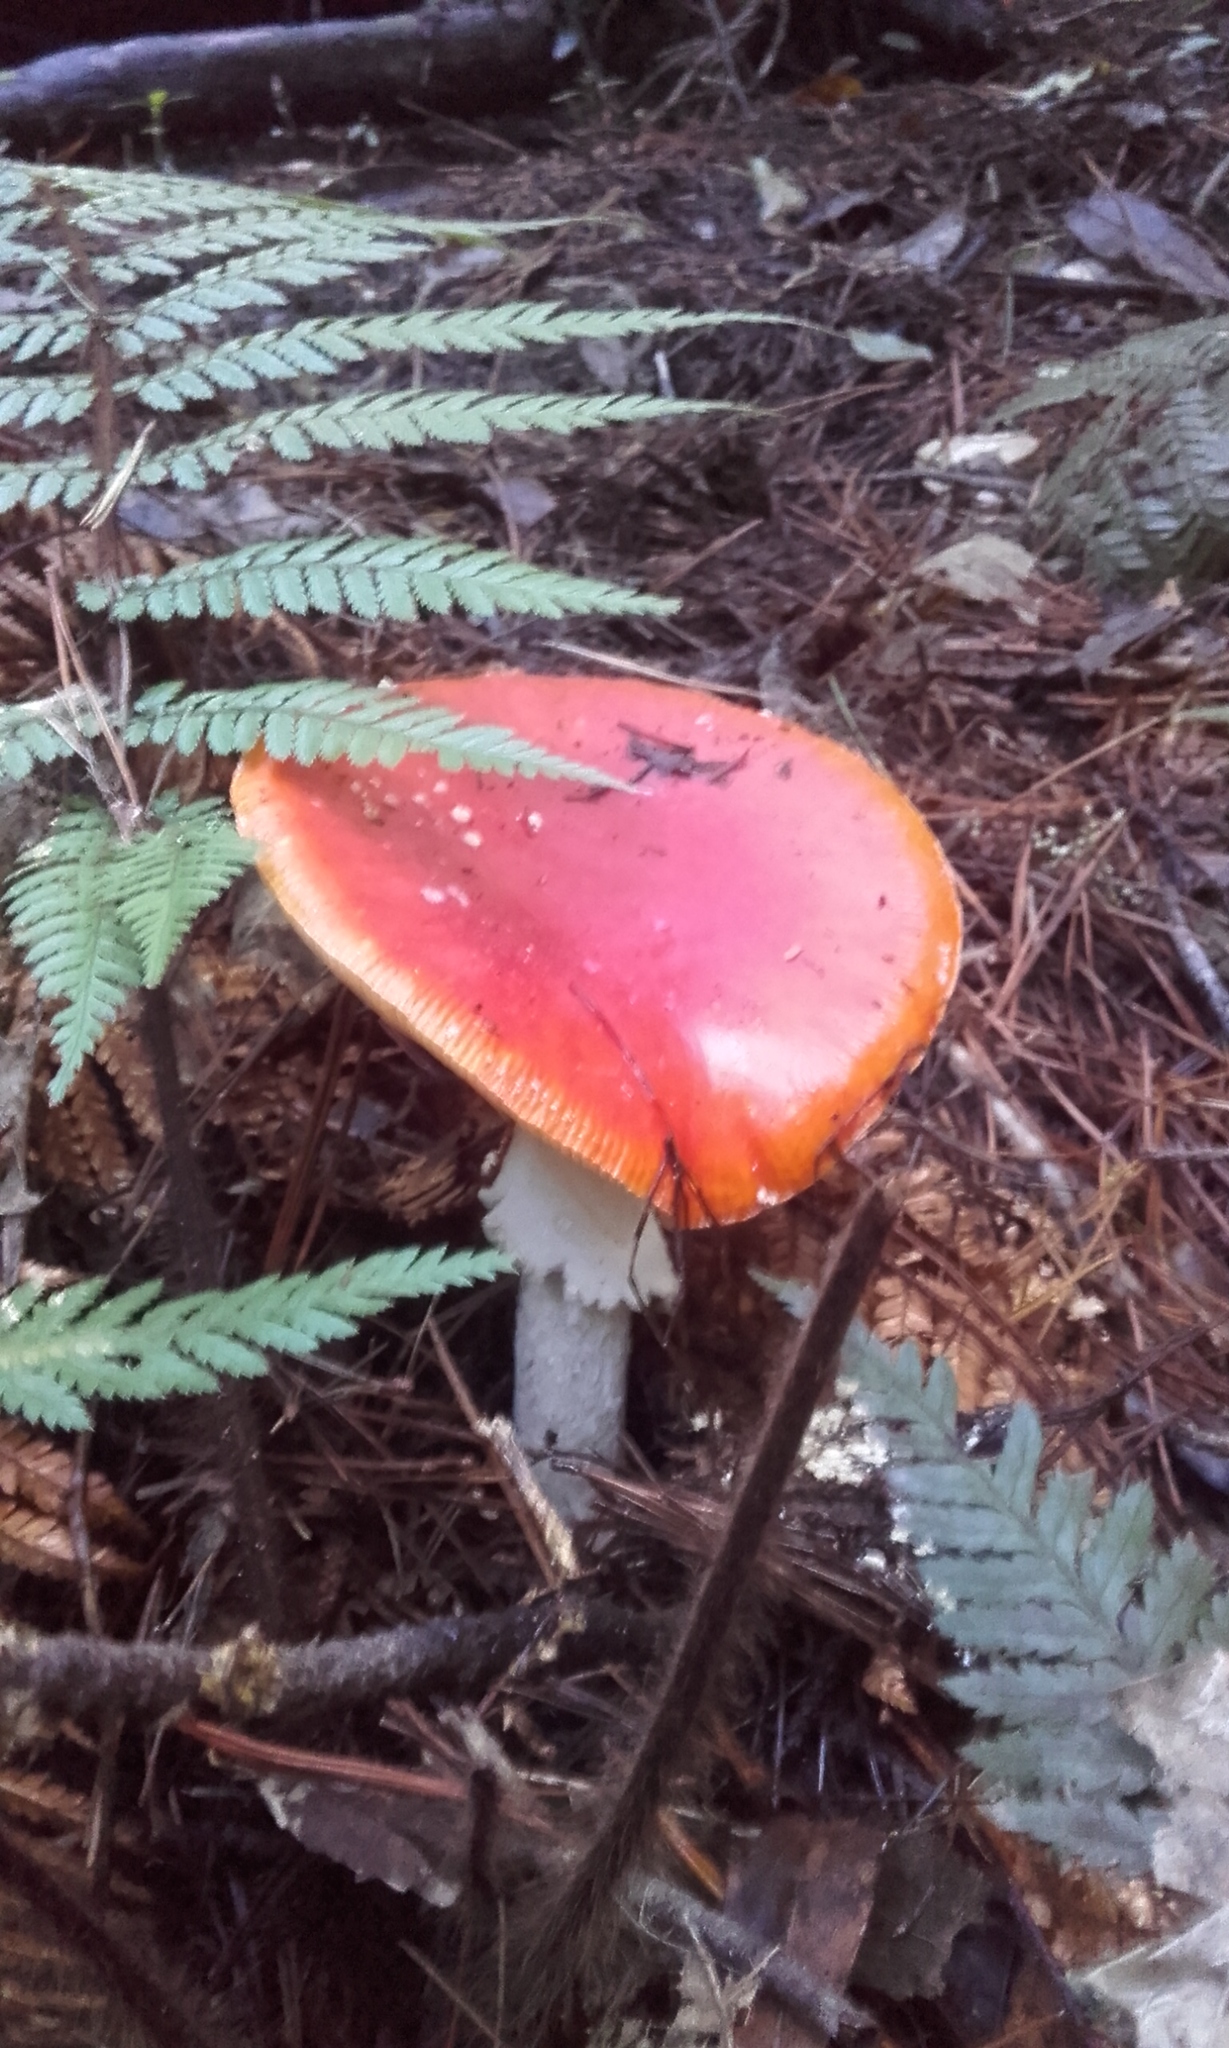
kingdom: Fungi
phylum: Basidiomycota
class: Agaricomycetes
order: Agaricales
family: Amanitaceae
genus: Amanita
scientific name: Amanita muscaria
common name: Fly agaric
